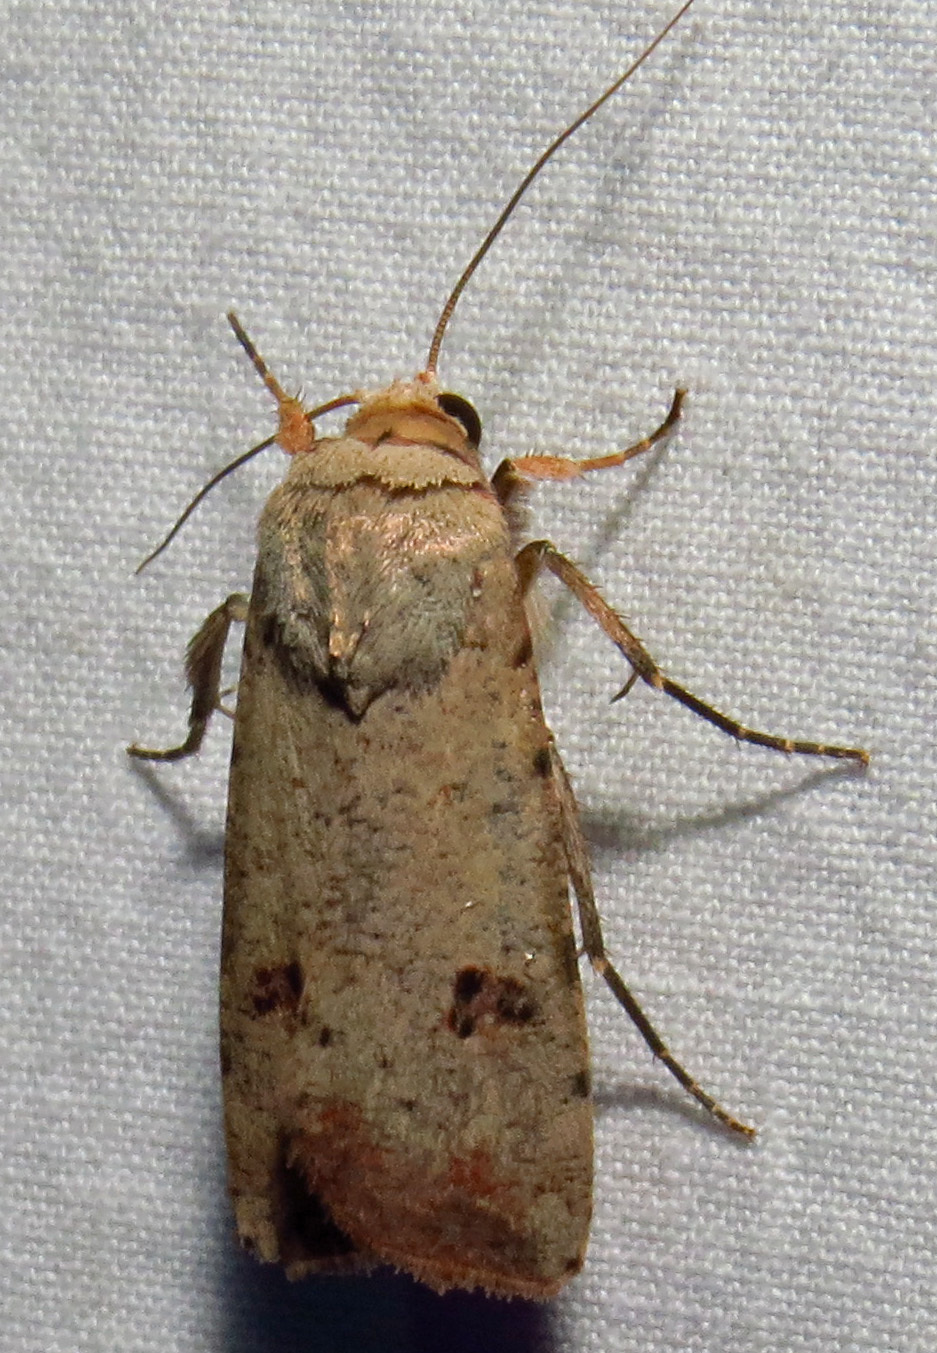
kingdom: Animalia
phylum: Arthropoda
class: Insecta
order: Lepidoptera
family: Noctuidae
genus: Anicla
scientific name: Anicla infecta
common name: Green cutworm
